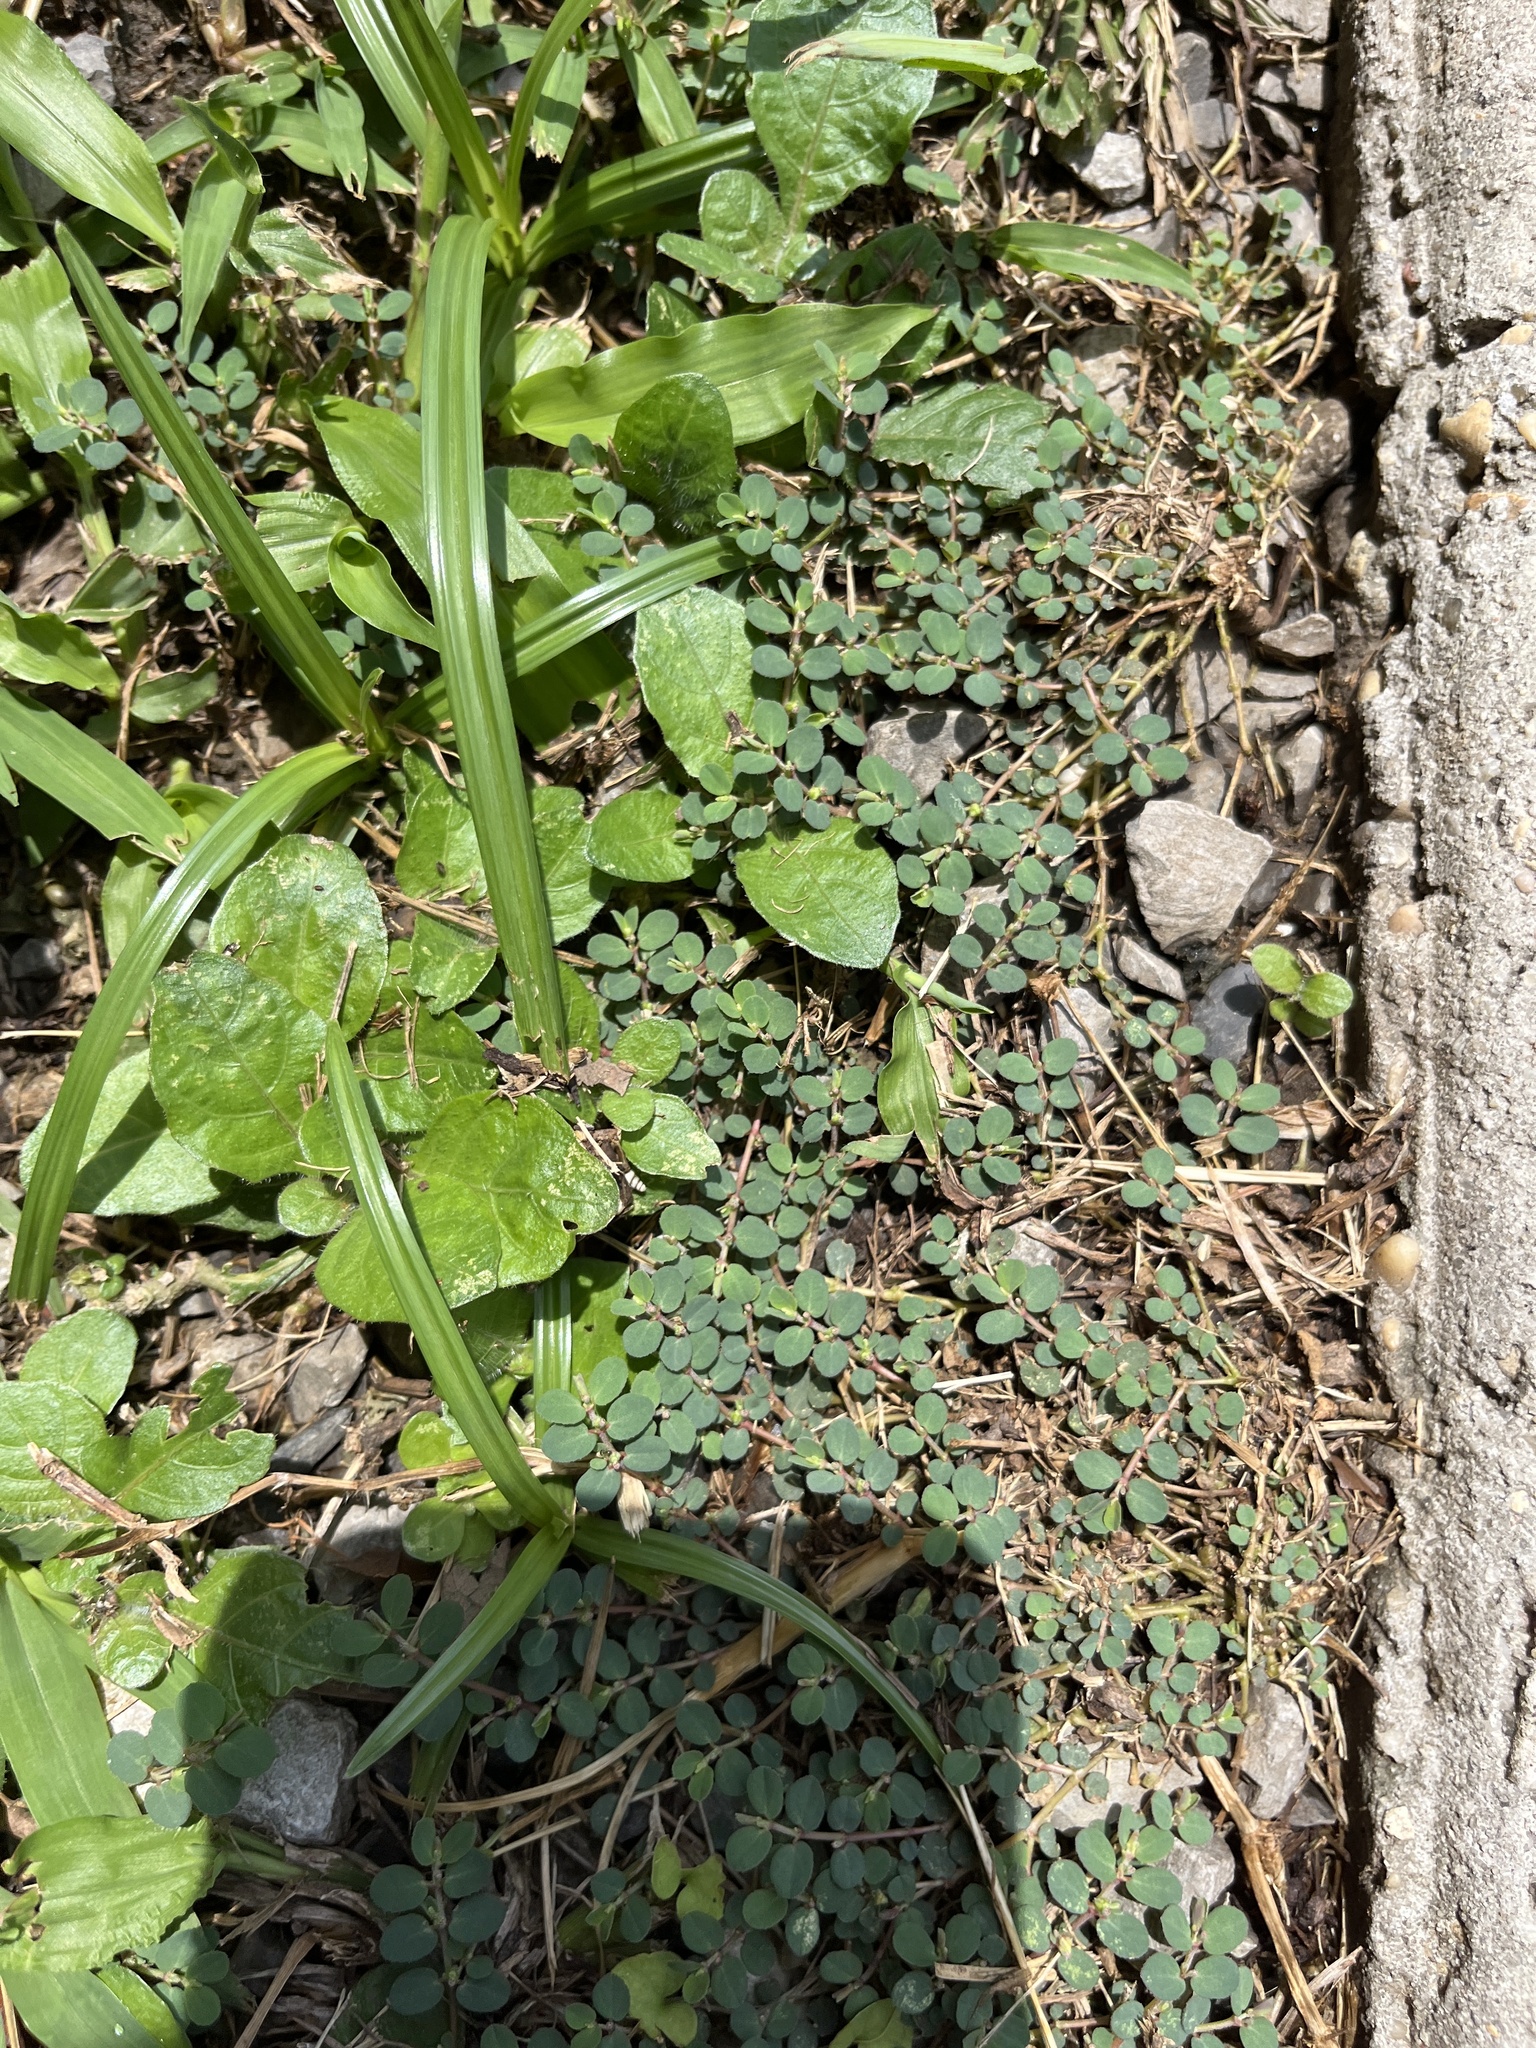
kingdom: Plantae
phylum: Tracheophyta
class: Magnoliopsida
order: Malpighiales
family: Euphorbiaceae
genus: Euphorbia
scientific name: Euphorbia prostrata
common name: Prostrate sandmat
